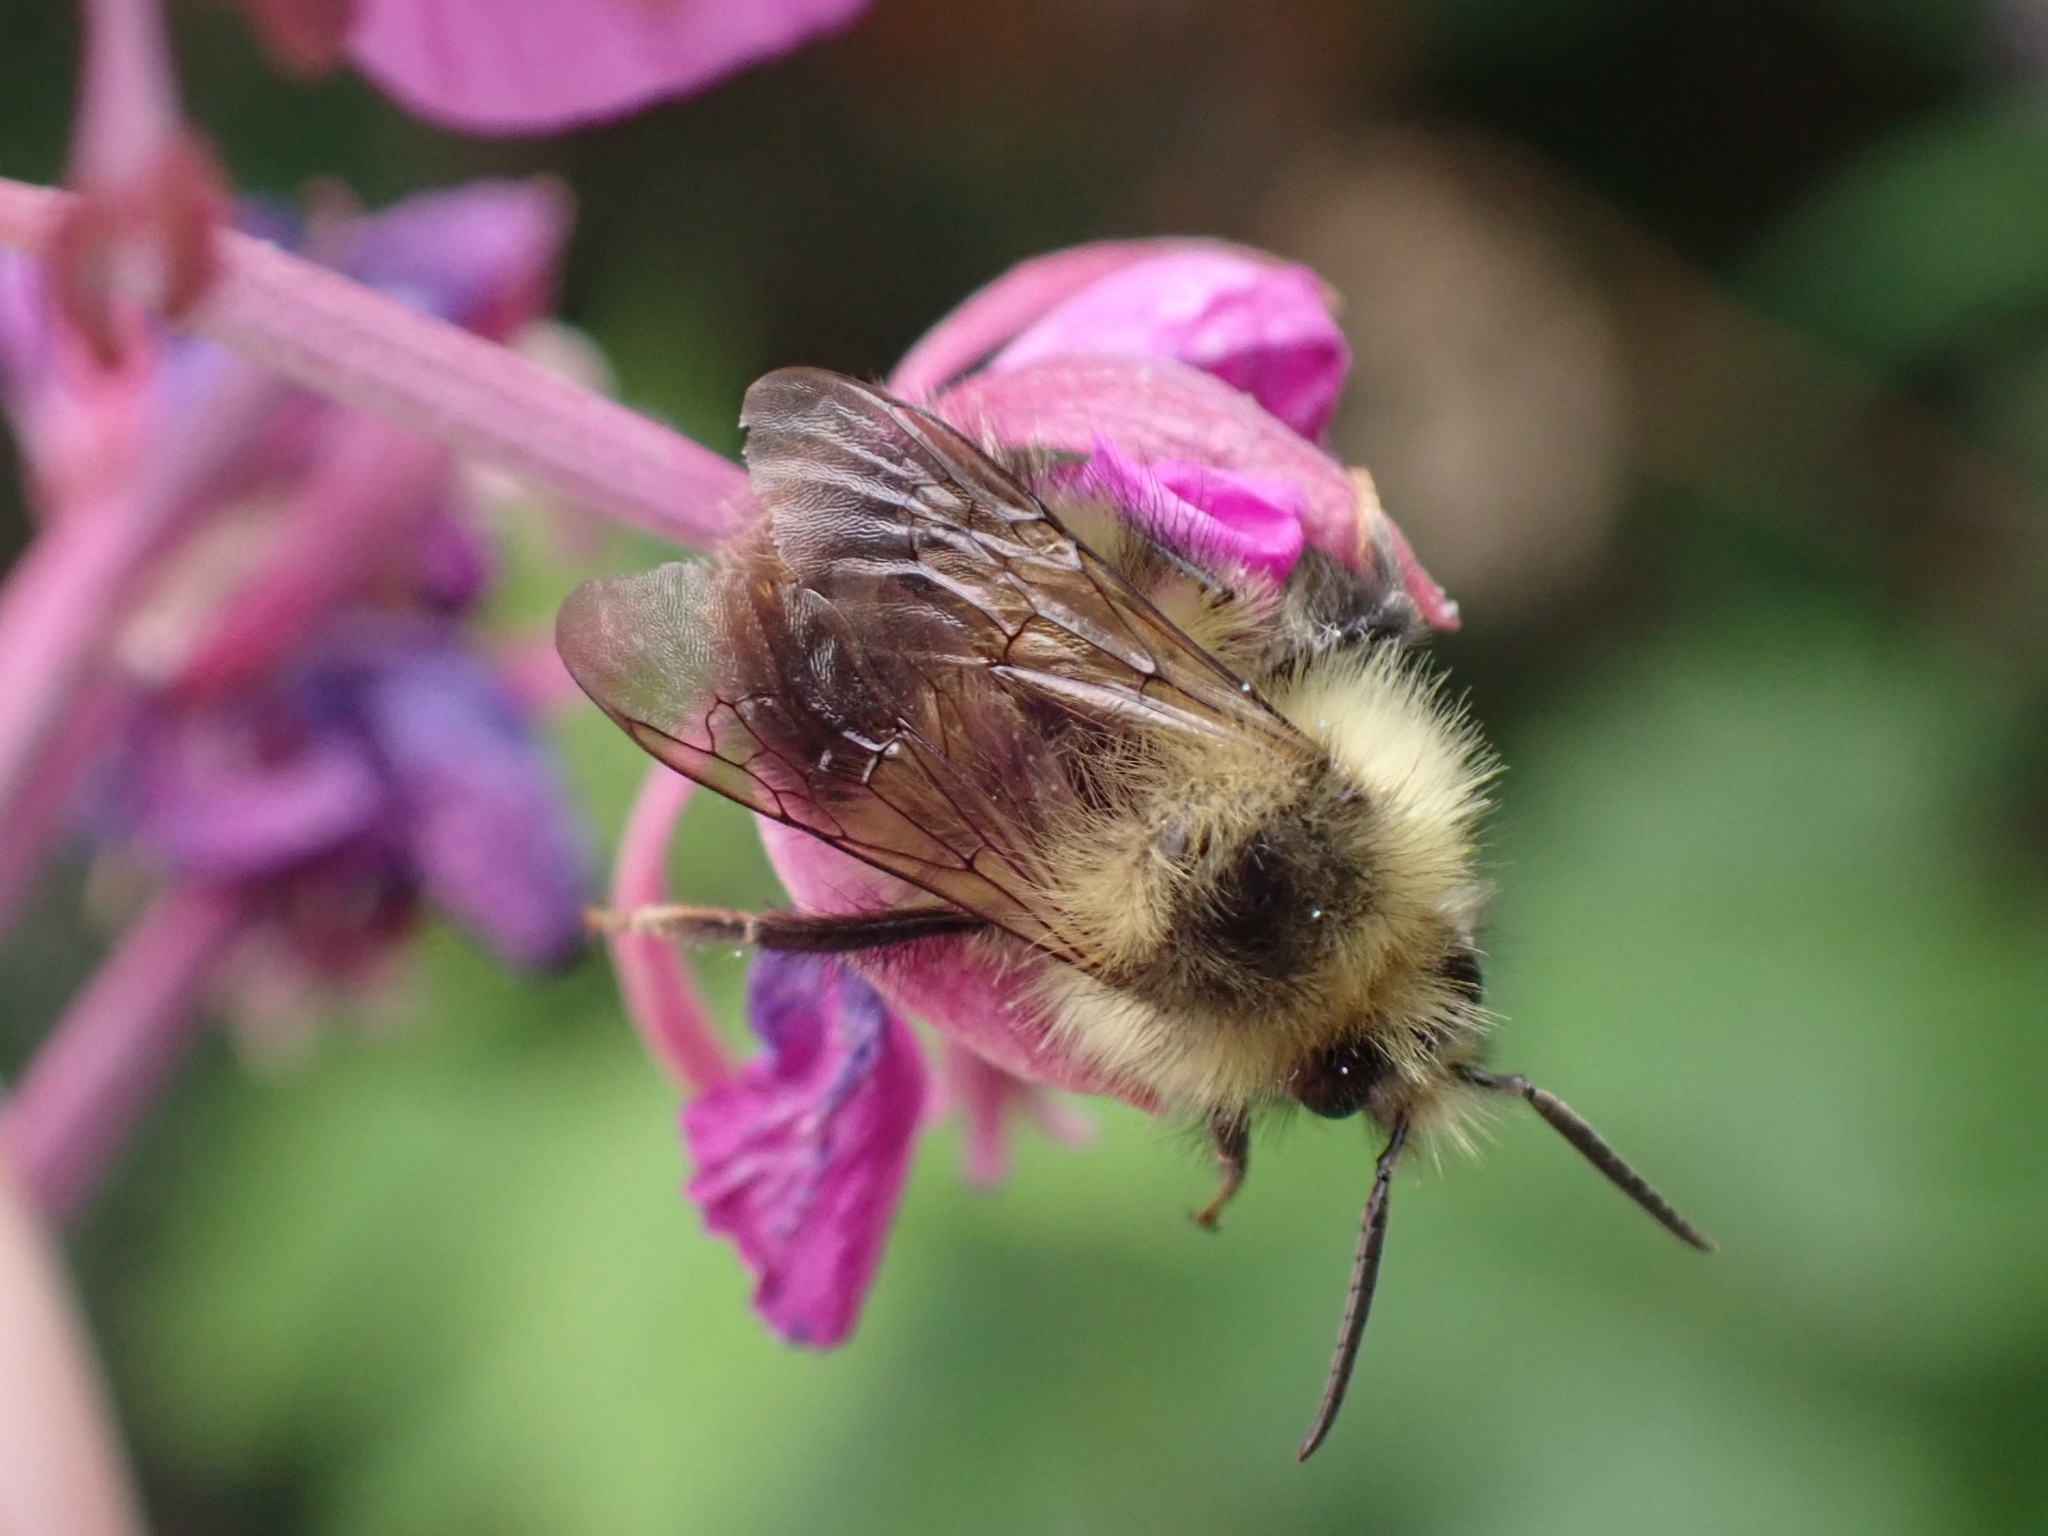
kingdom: Animalia
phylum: Arthropoda
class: Insecta
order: Hymenoptera
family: Apidae
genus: Bombus
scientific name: Bombus mixtus
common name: Fuzzy-horned bumble bee
